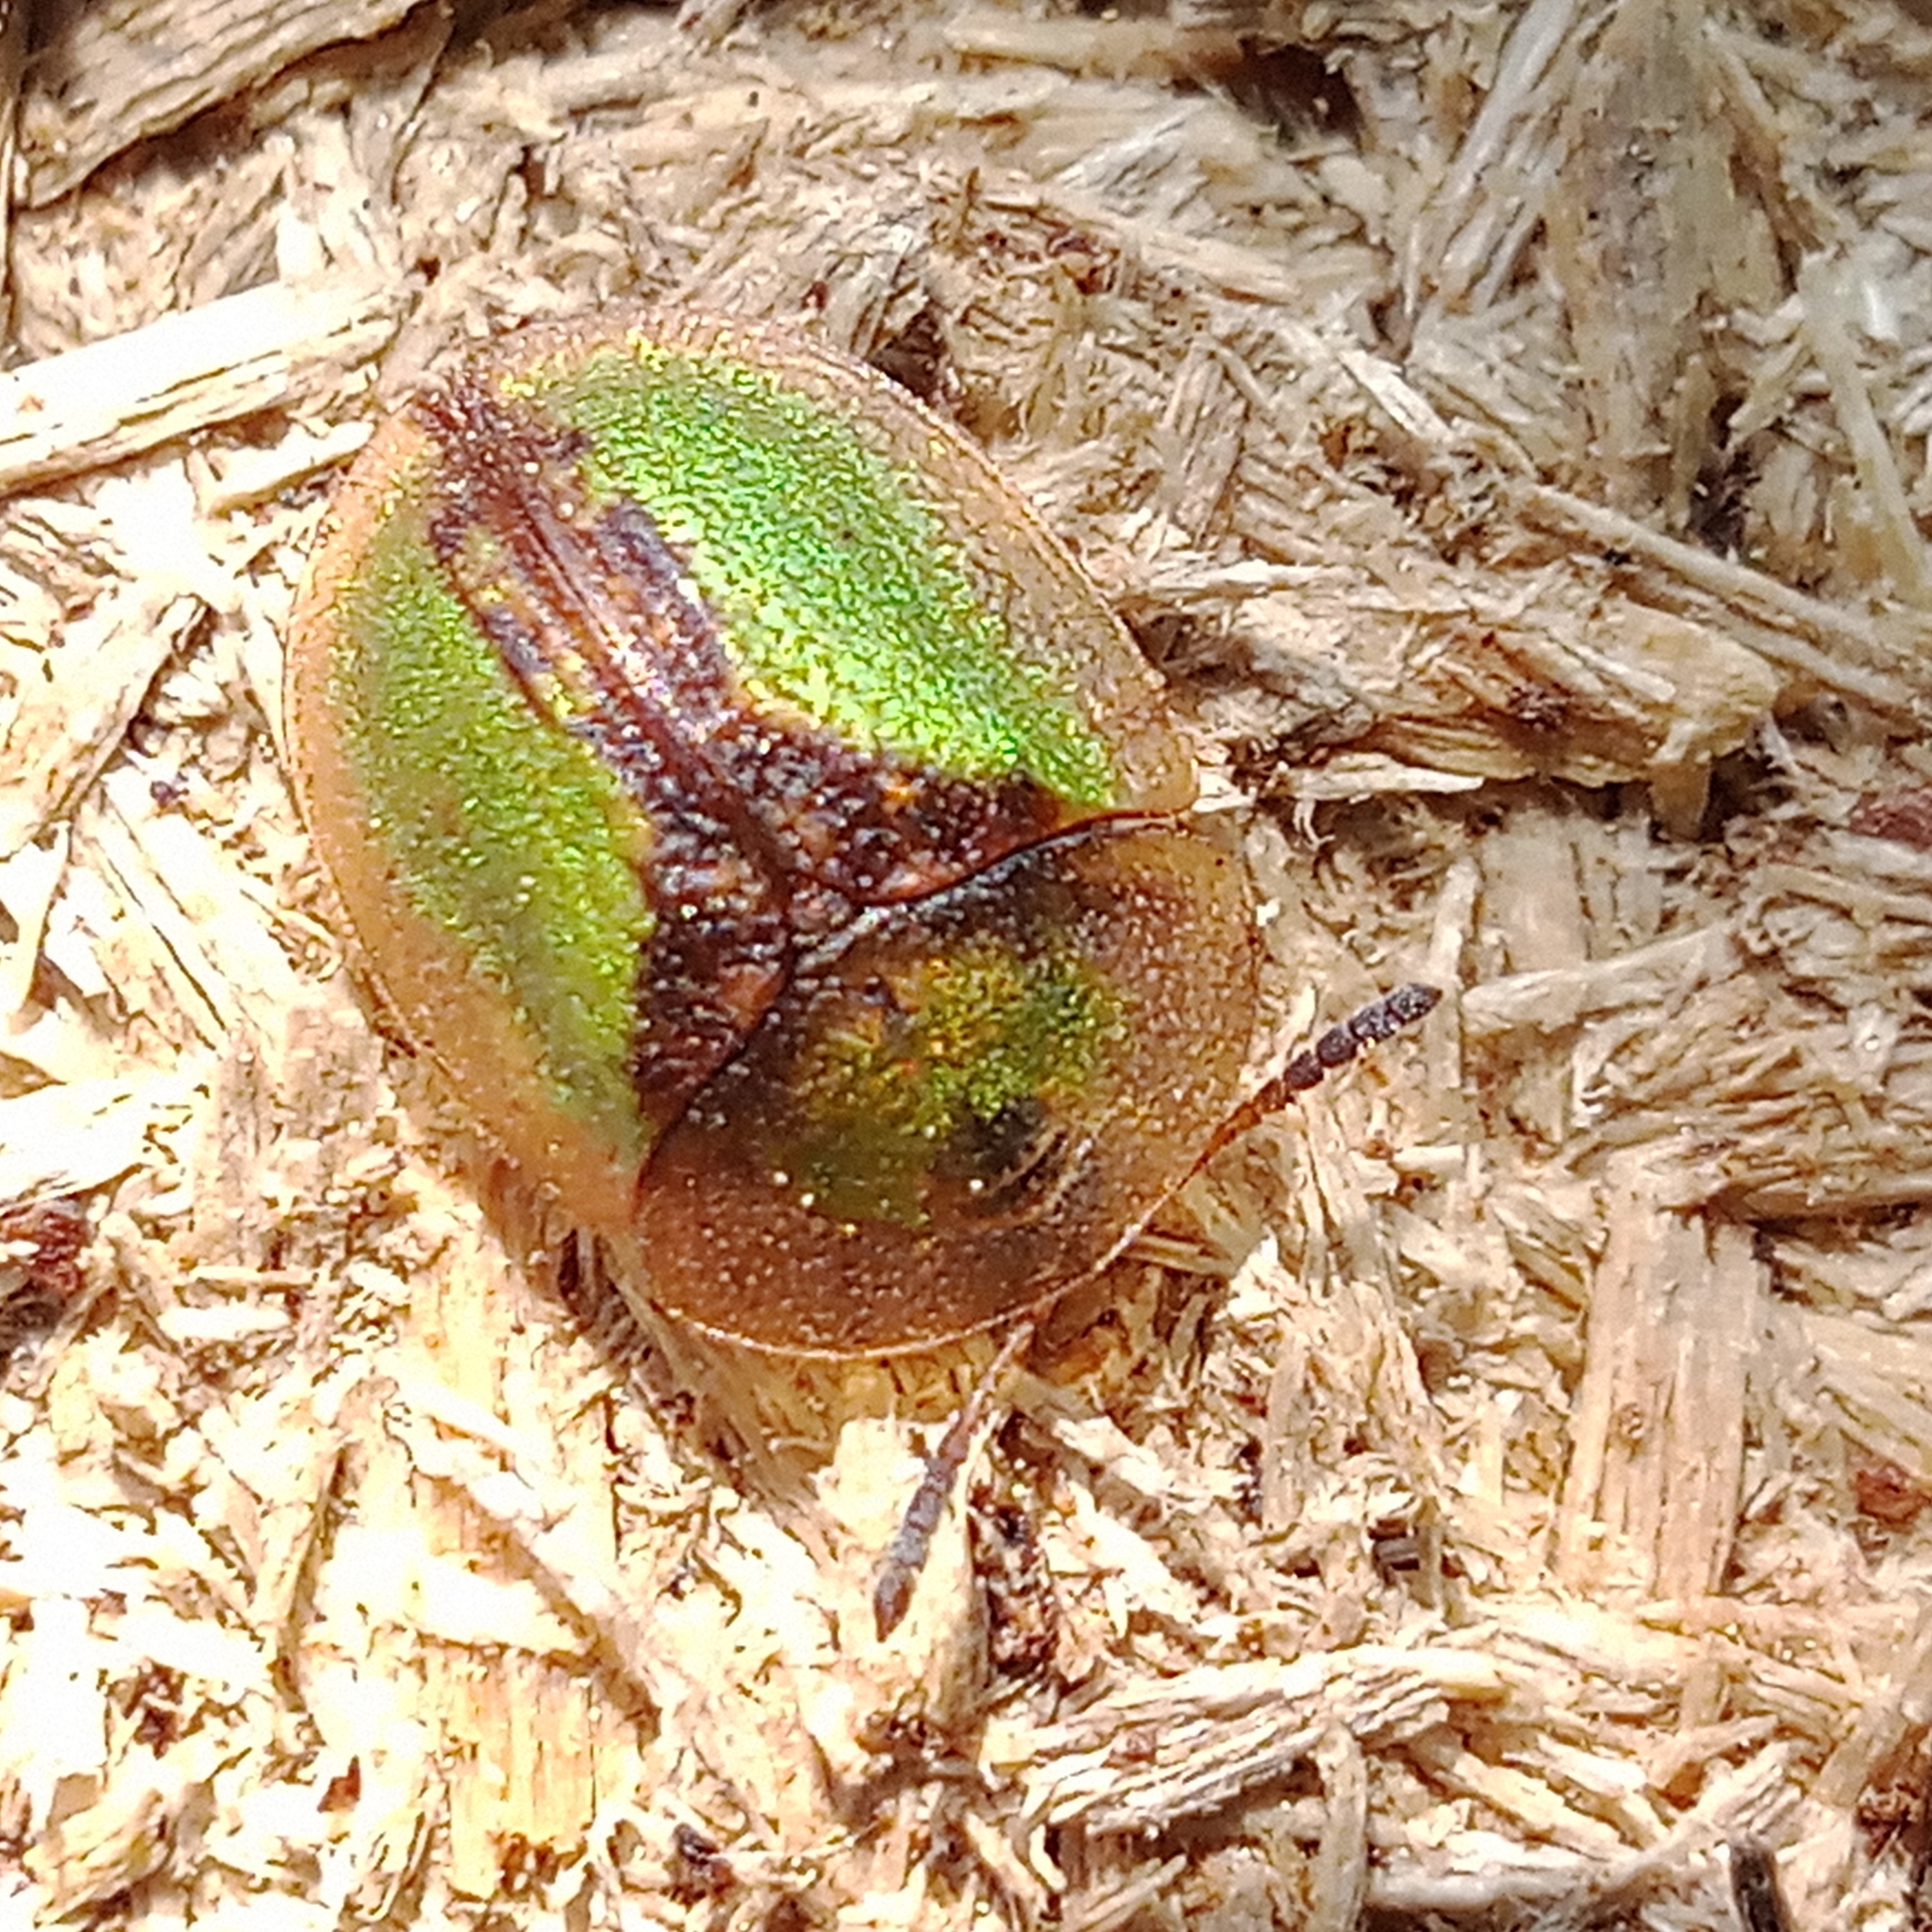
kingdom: Animalia
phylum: Arthropoda
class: Insecta
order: Coleoptera
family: Chrysomelidae
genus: Cassida
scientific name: Cassida vibex
